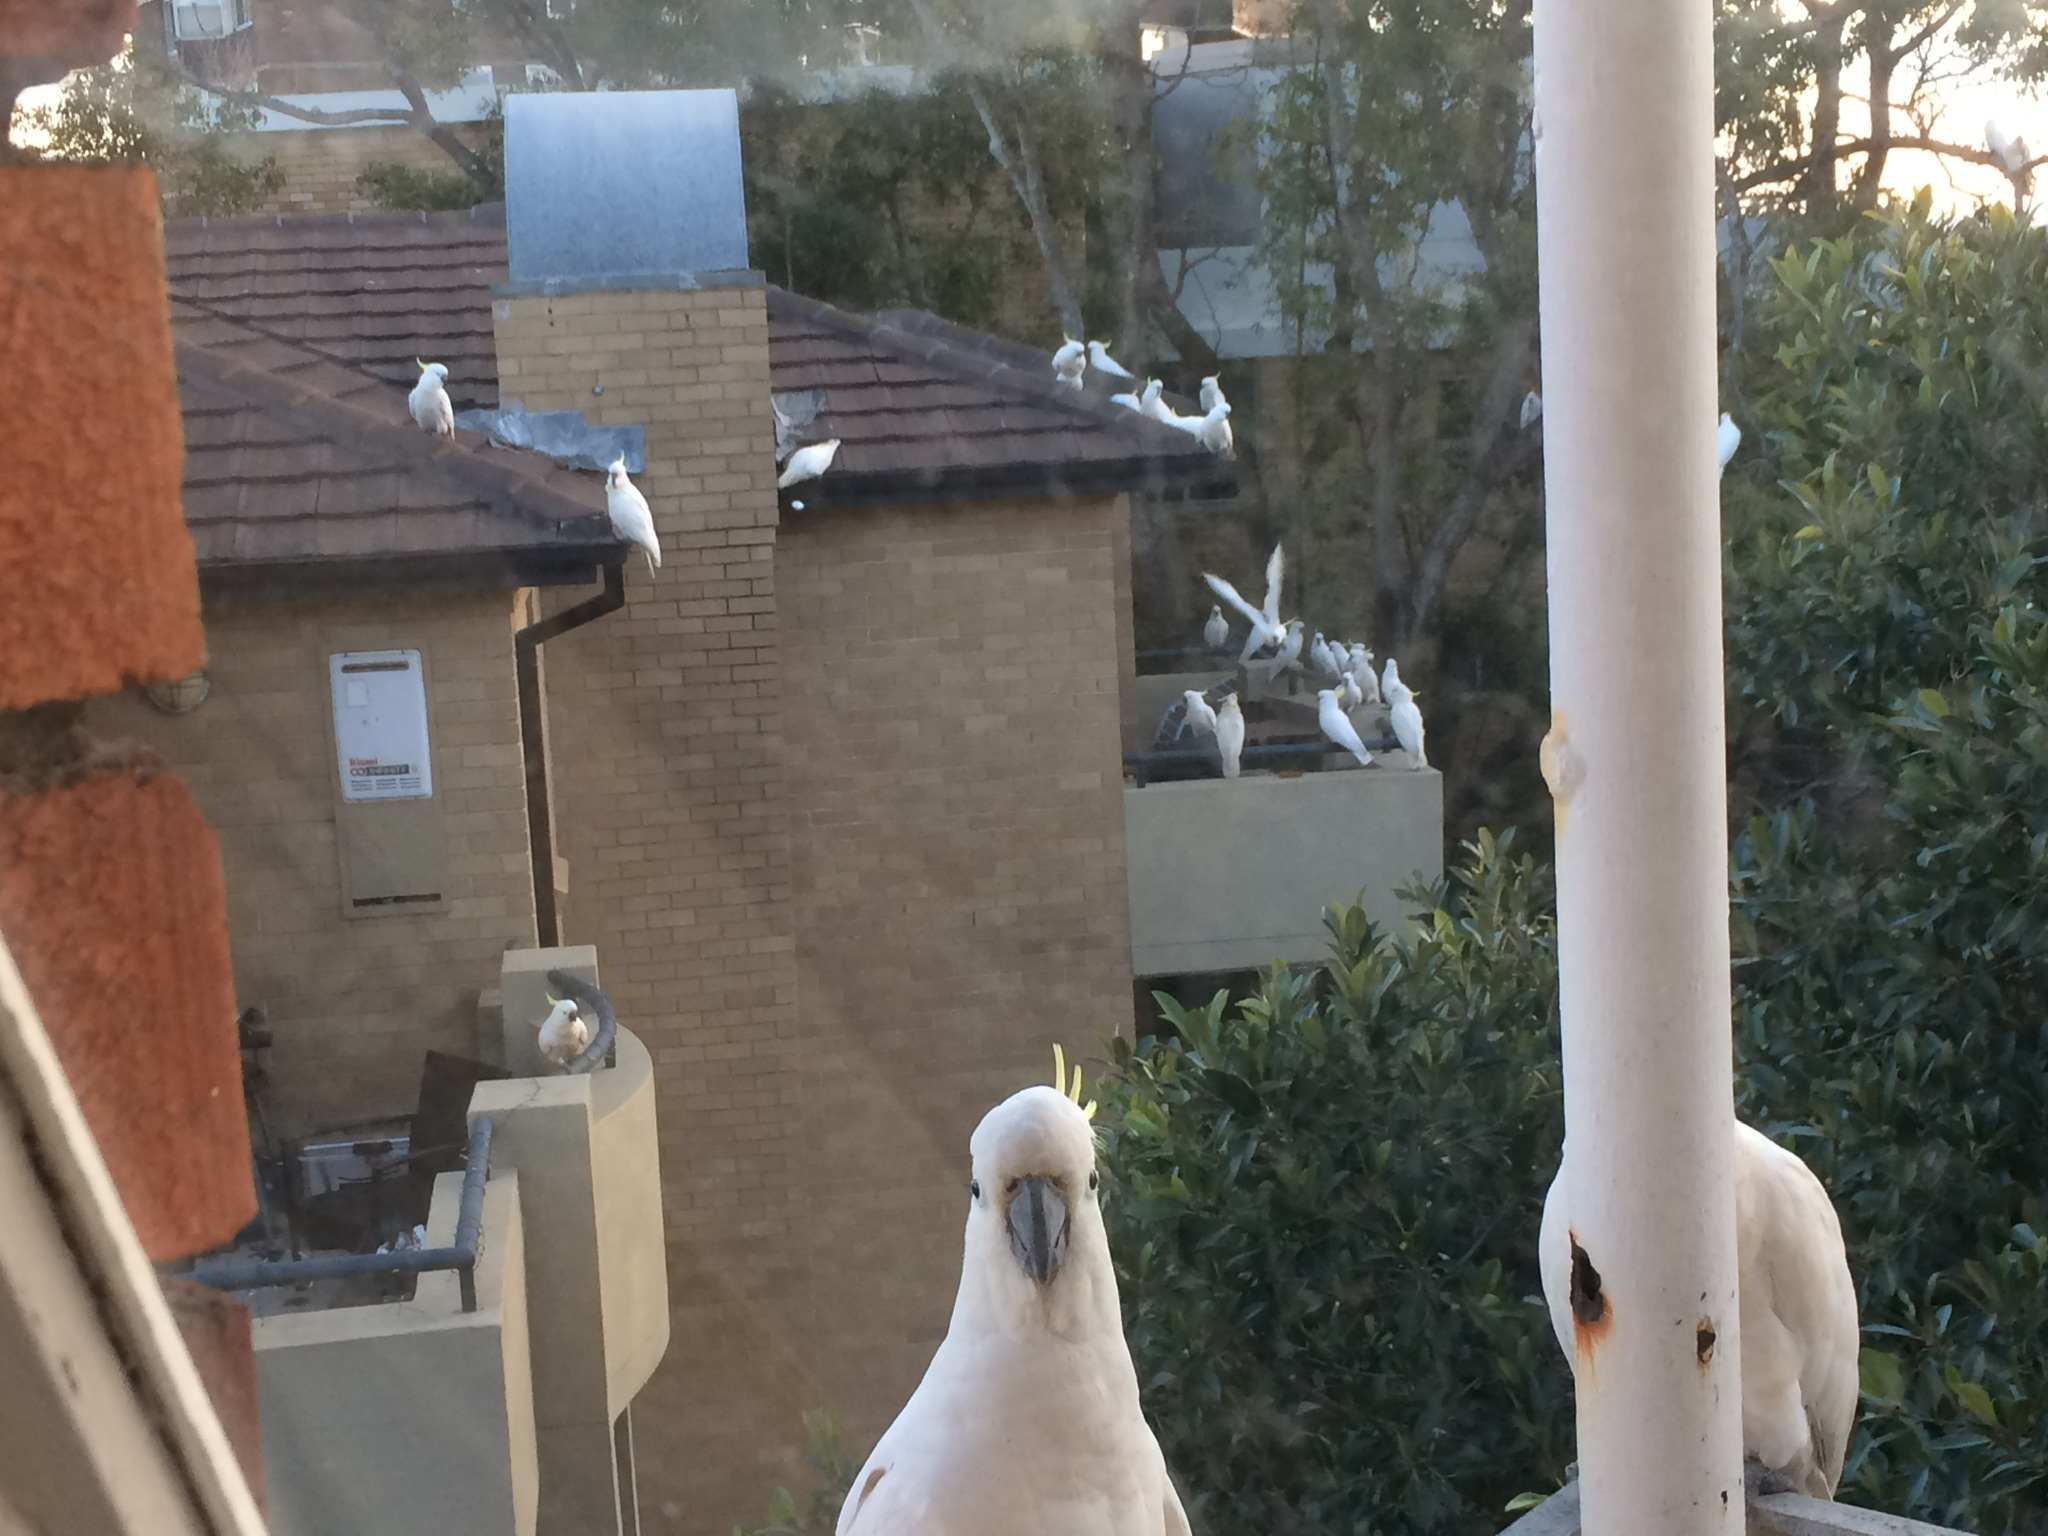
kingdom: Animalia
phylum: Chordata
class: Aves
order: Psittaciformes
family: Psittacidae
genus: Cacatua
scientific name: Cacatua galerita
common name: Sulphur-crested cockatoo
